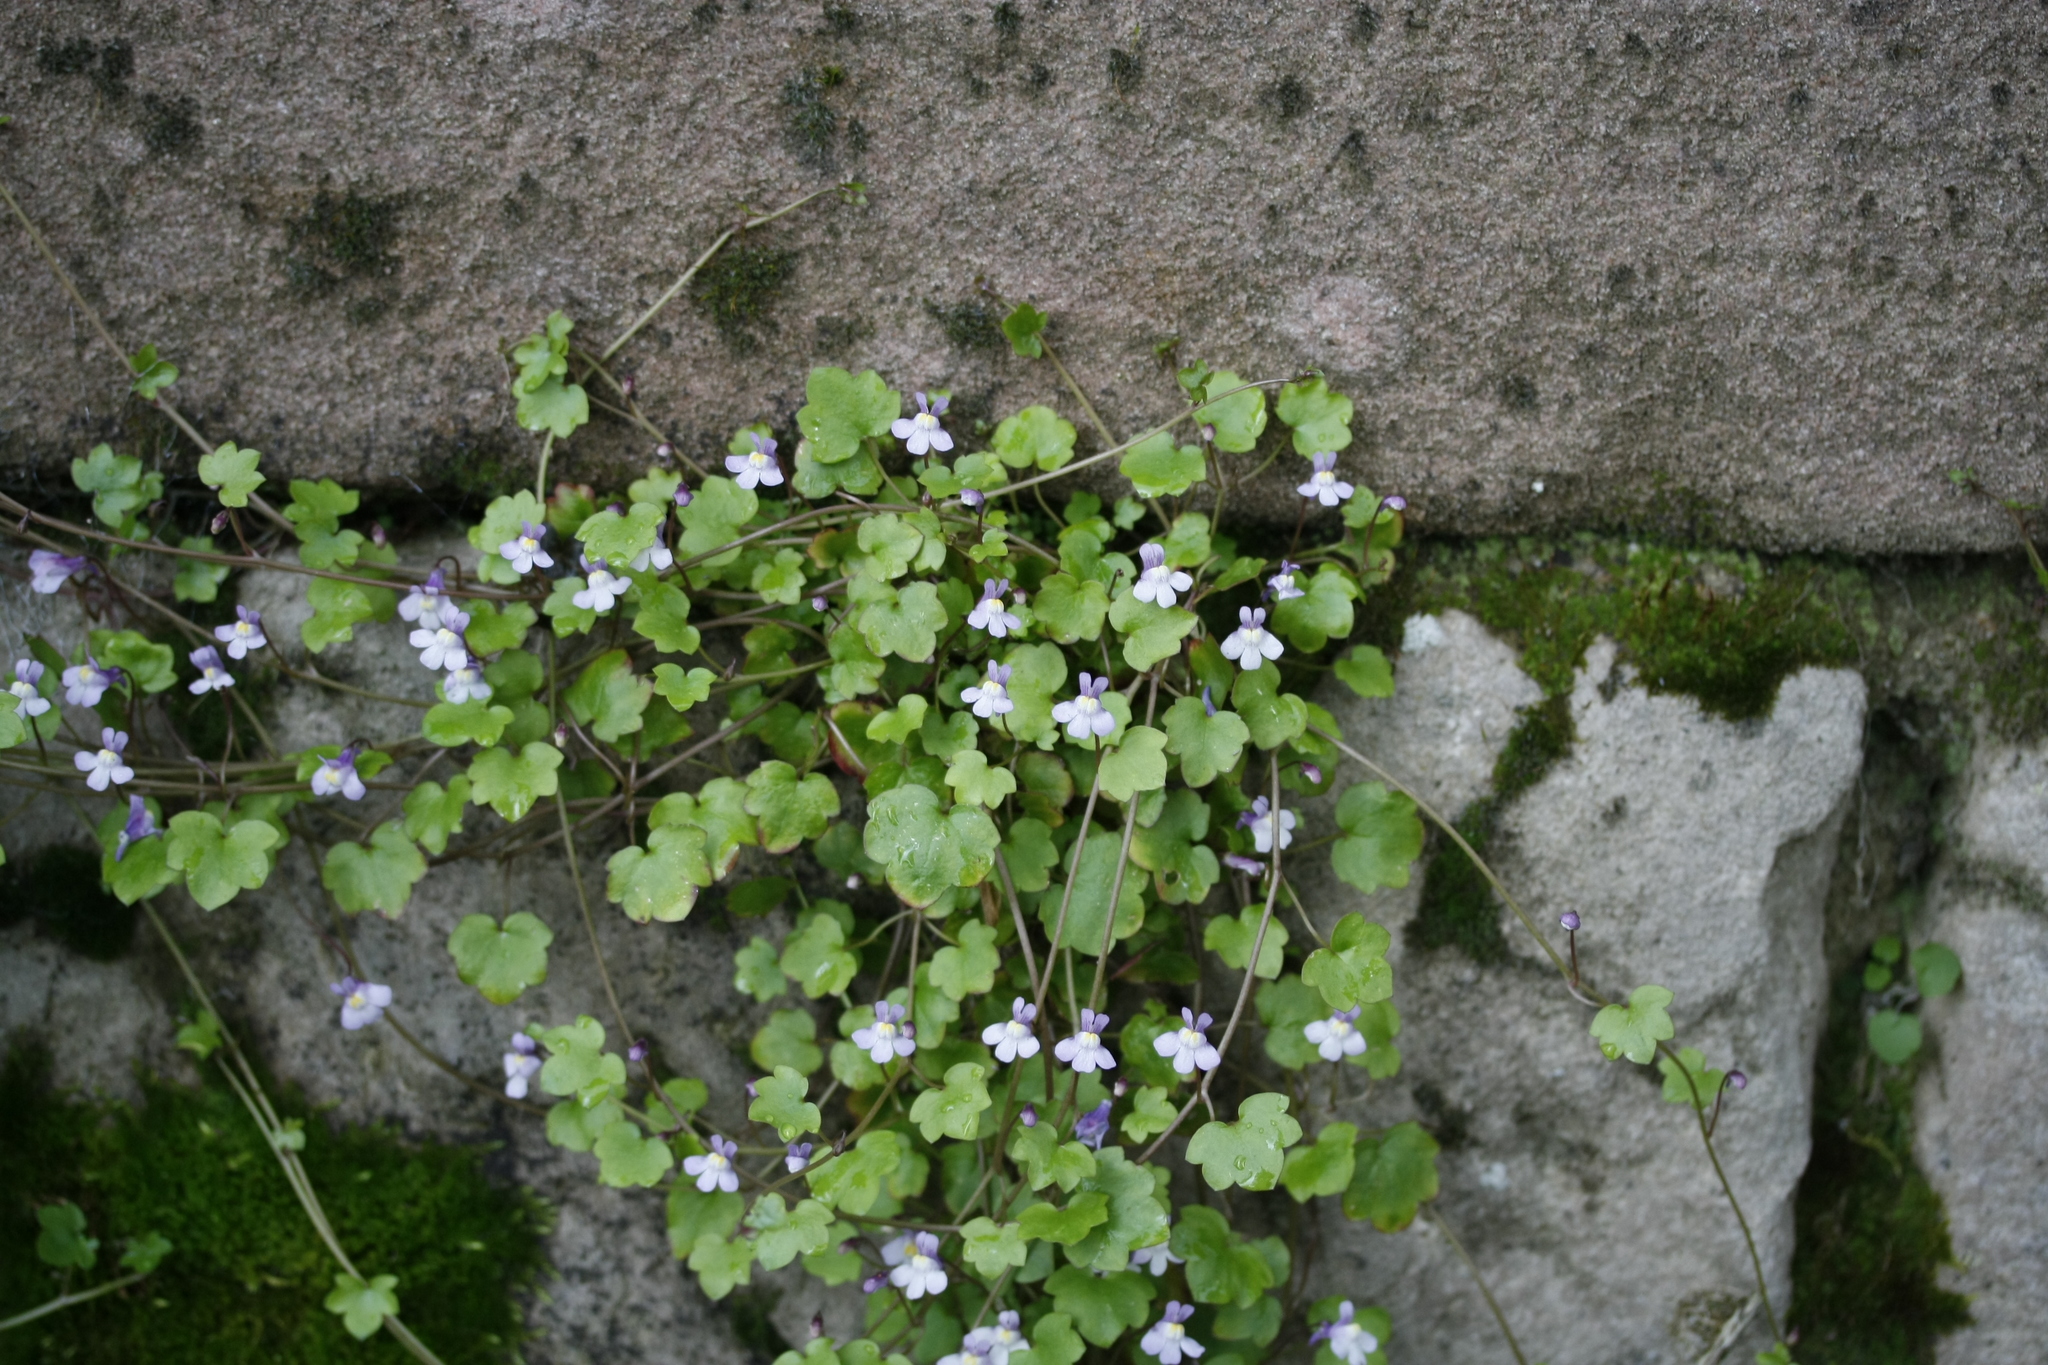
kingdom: Plantae
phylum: Tracheophyta
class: Magnoliopsida
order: Lamiales
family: Plantaginaceae
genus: Cymbalaria
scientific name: Cymbalaria muralis
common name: Ivy-leaved toadflax
